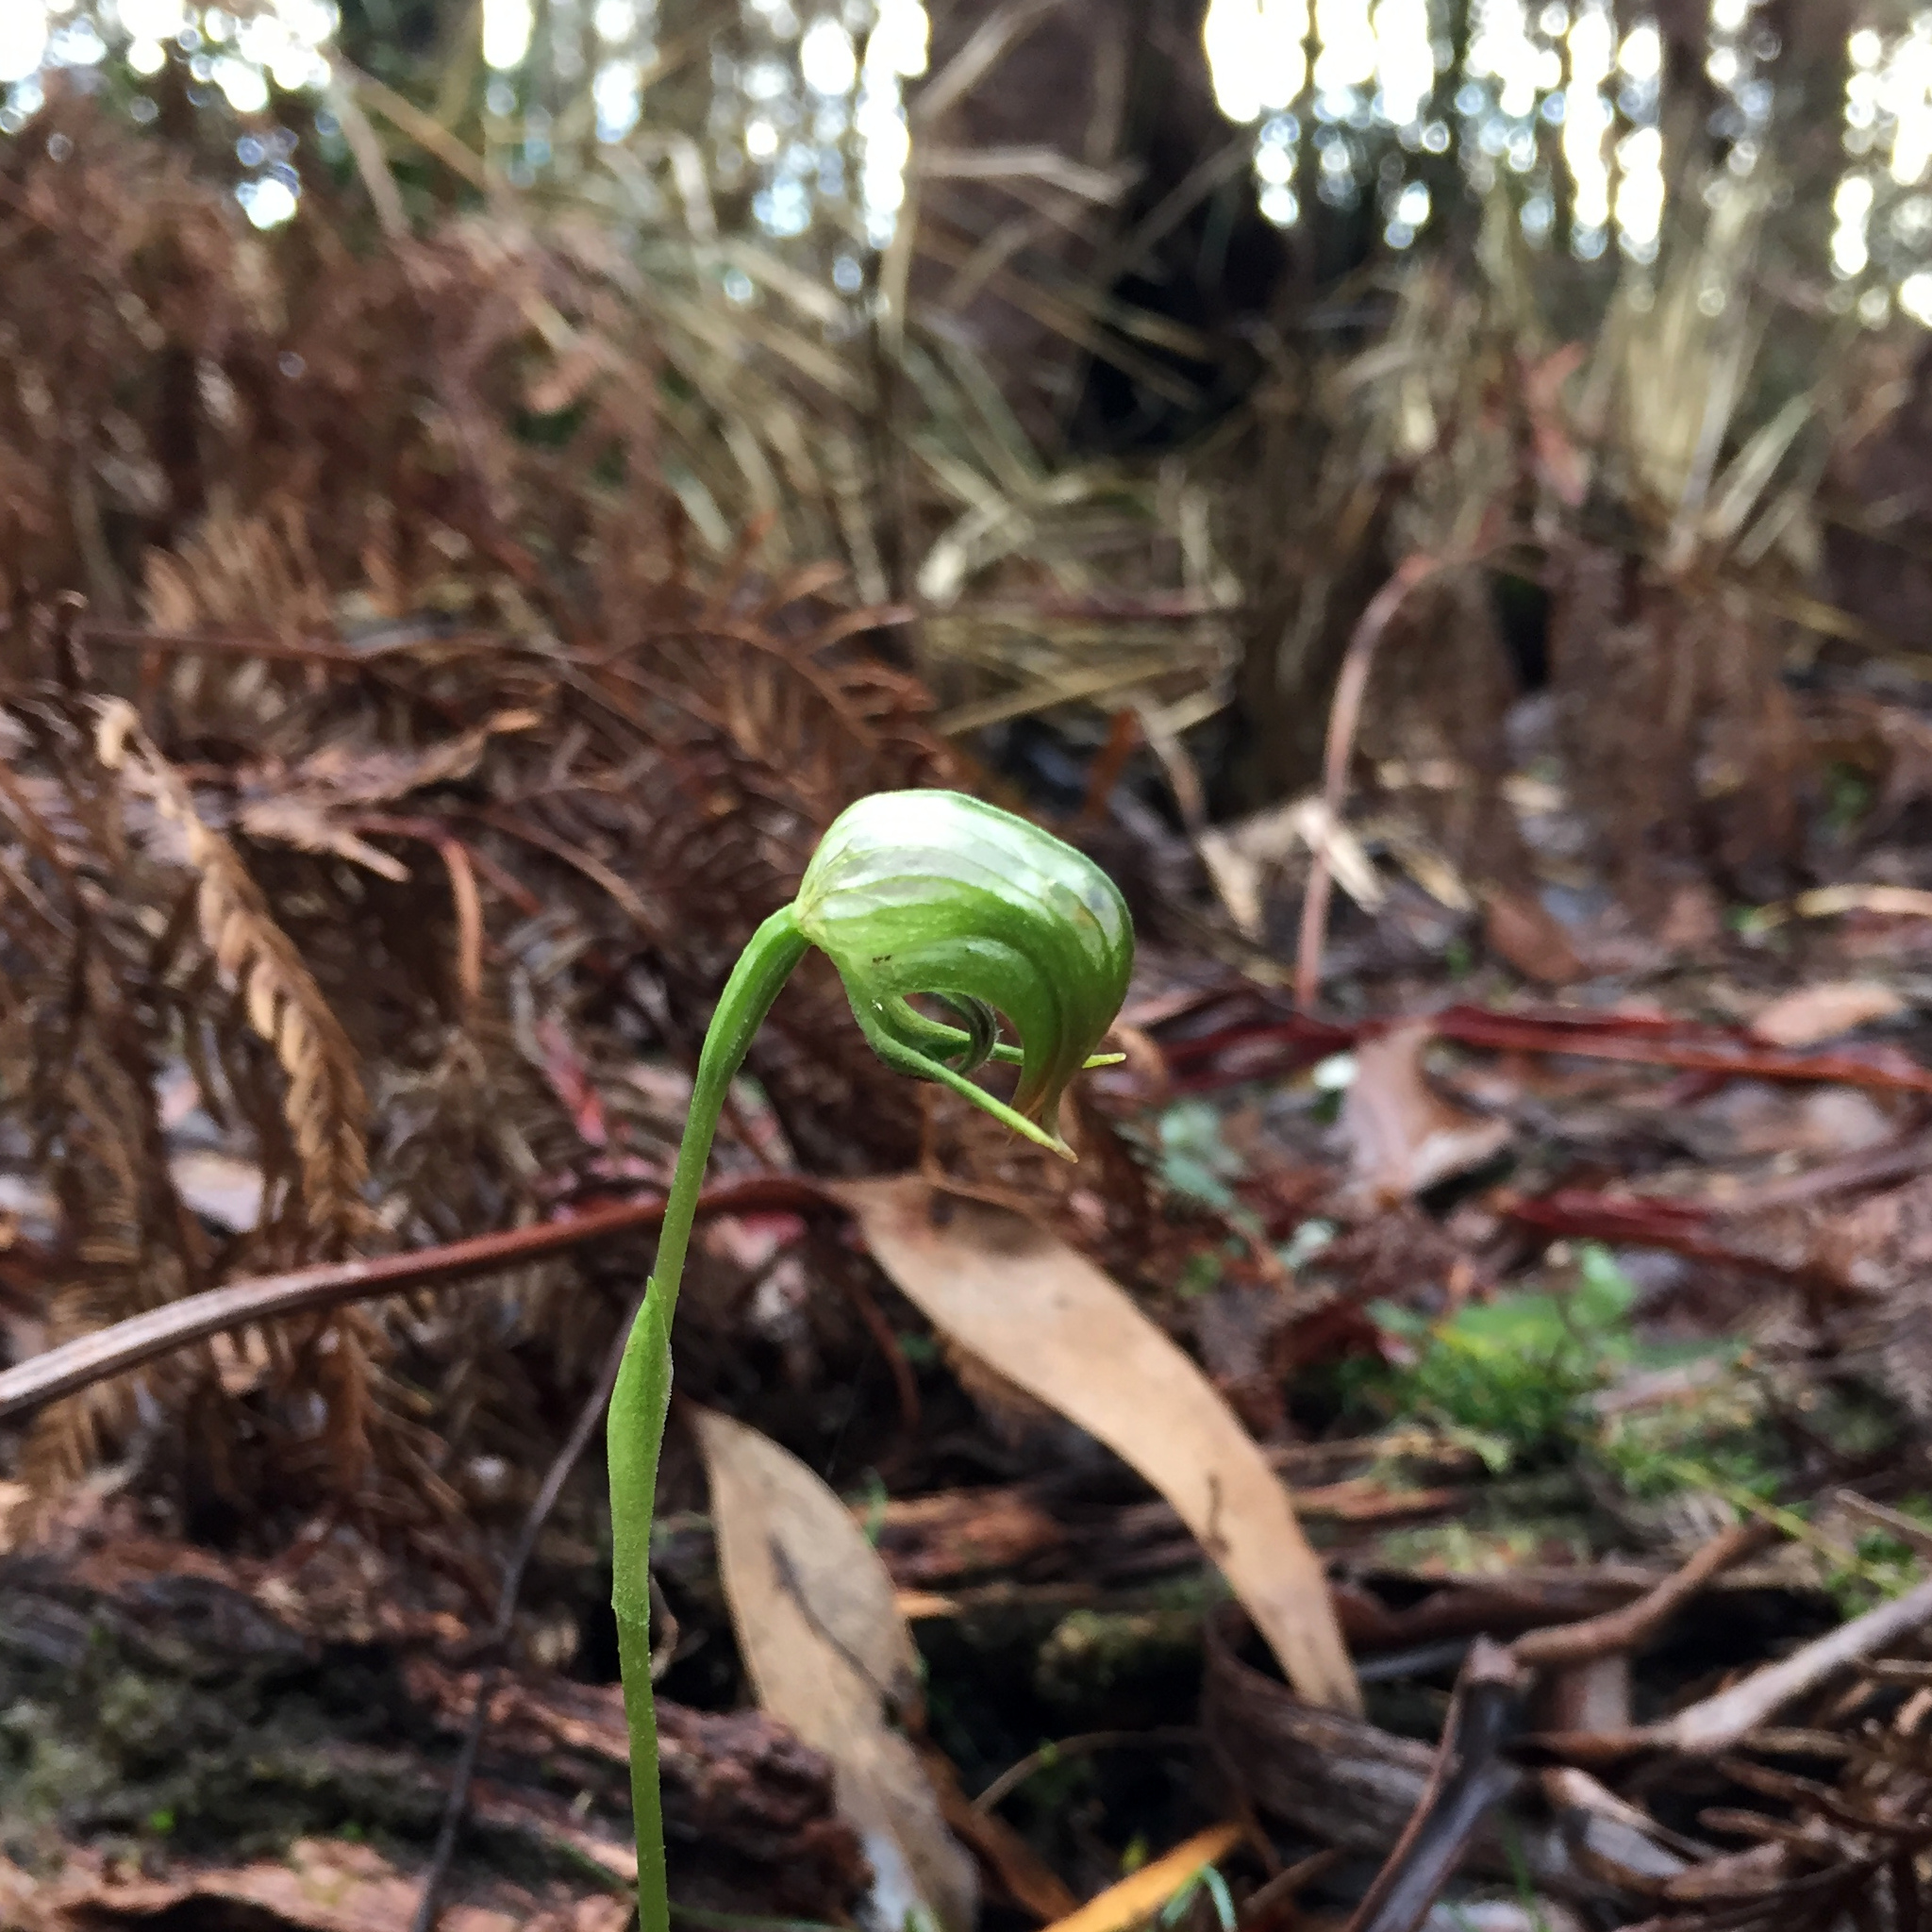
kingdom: Plantae
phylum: Tracheophyta
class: Liliopsida
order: Asparagales
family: Orchidaceae
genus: Pterostylis
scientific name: Pterostylis nutans
